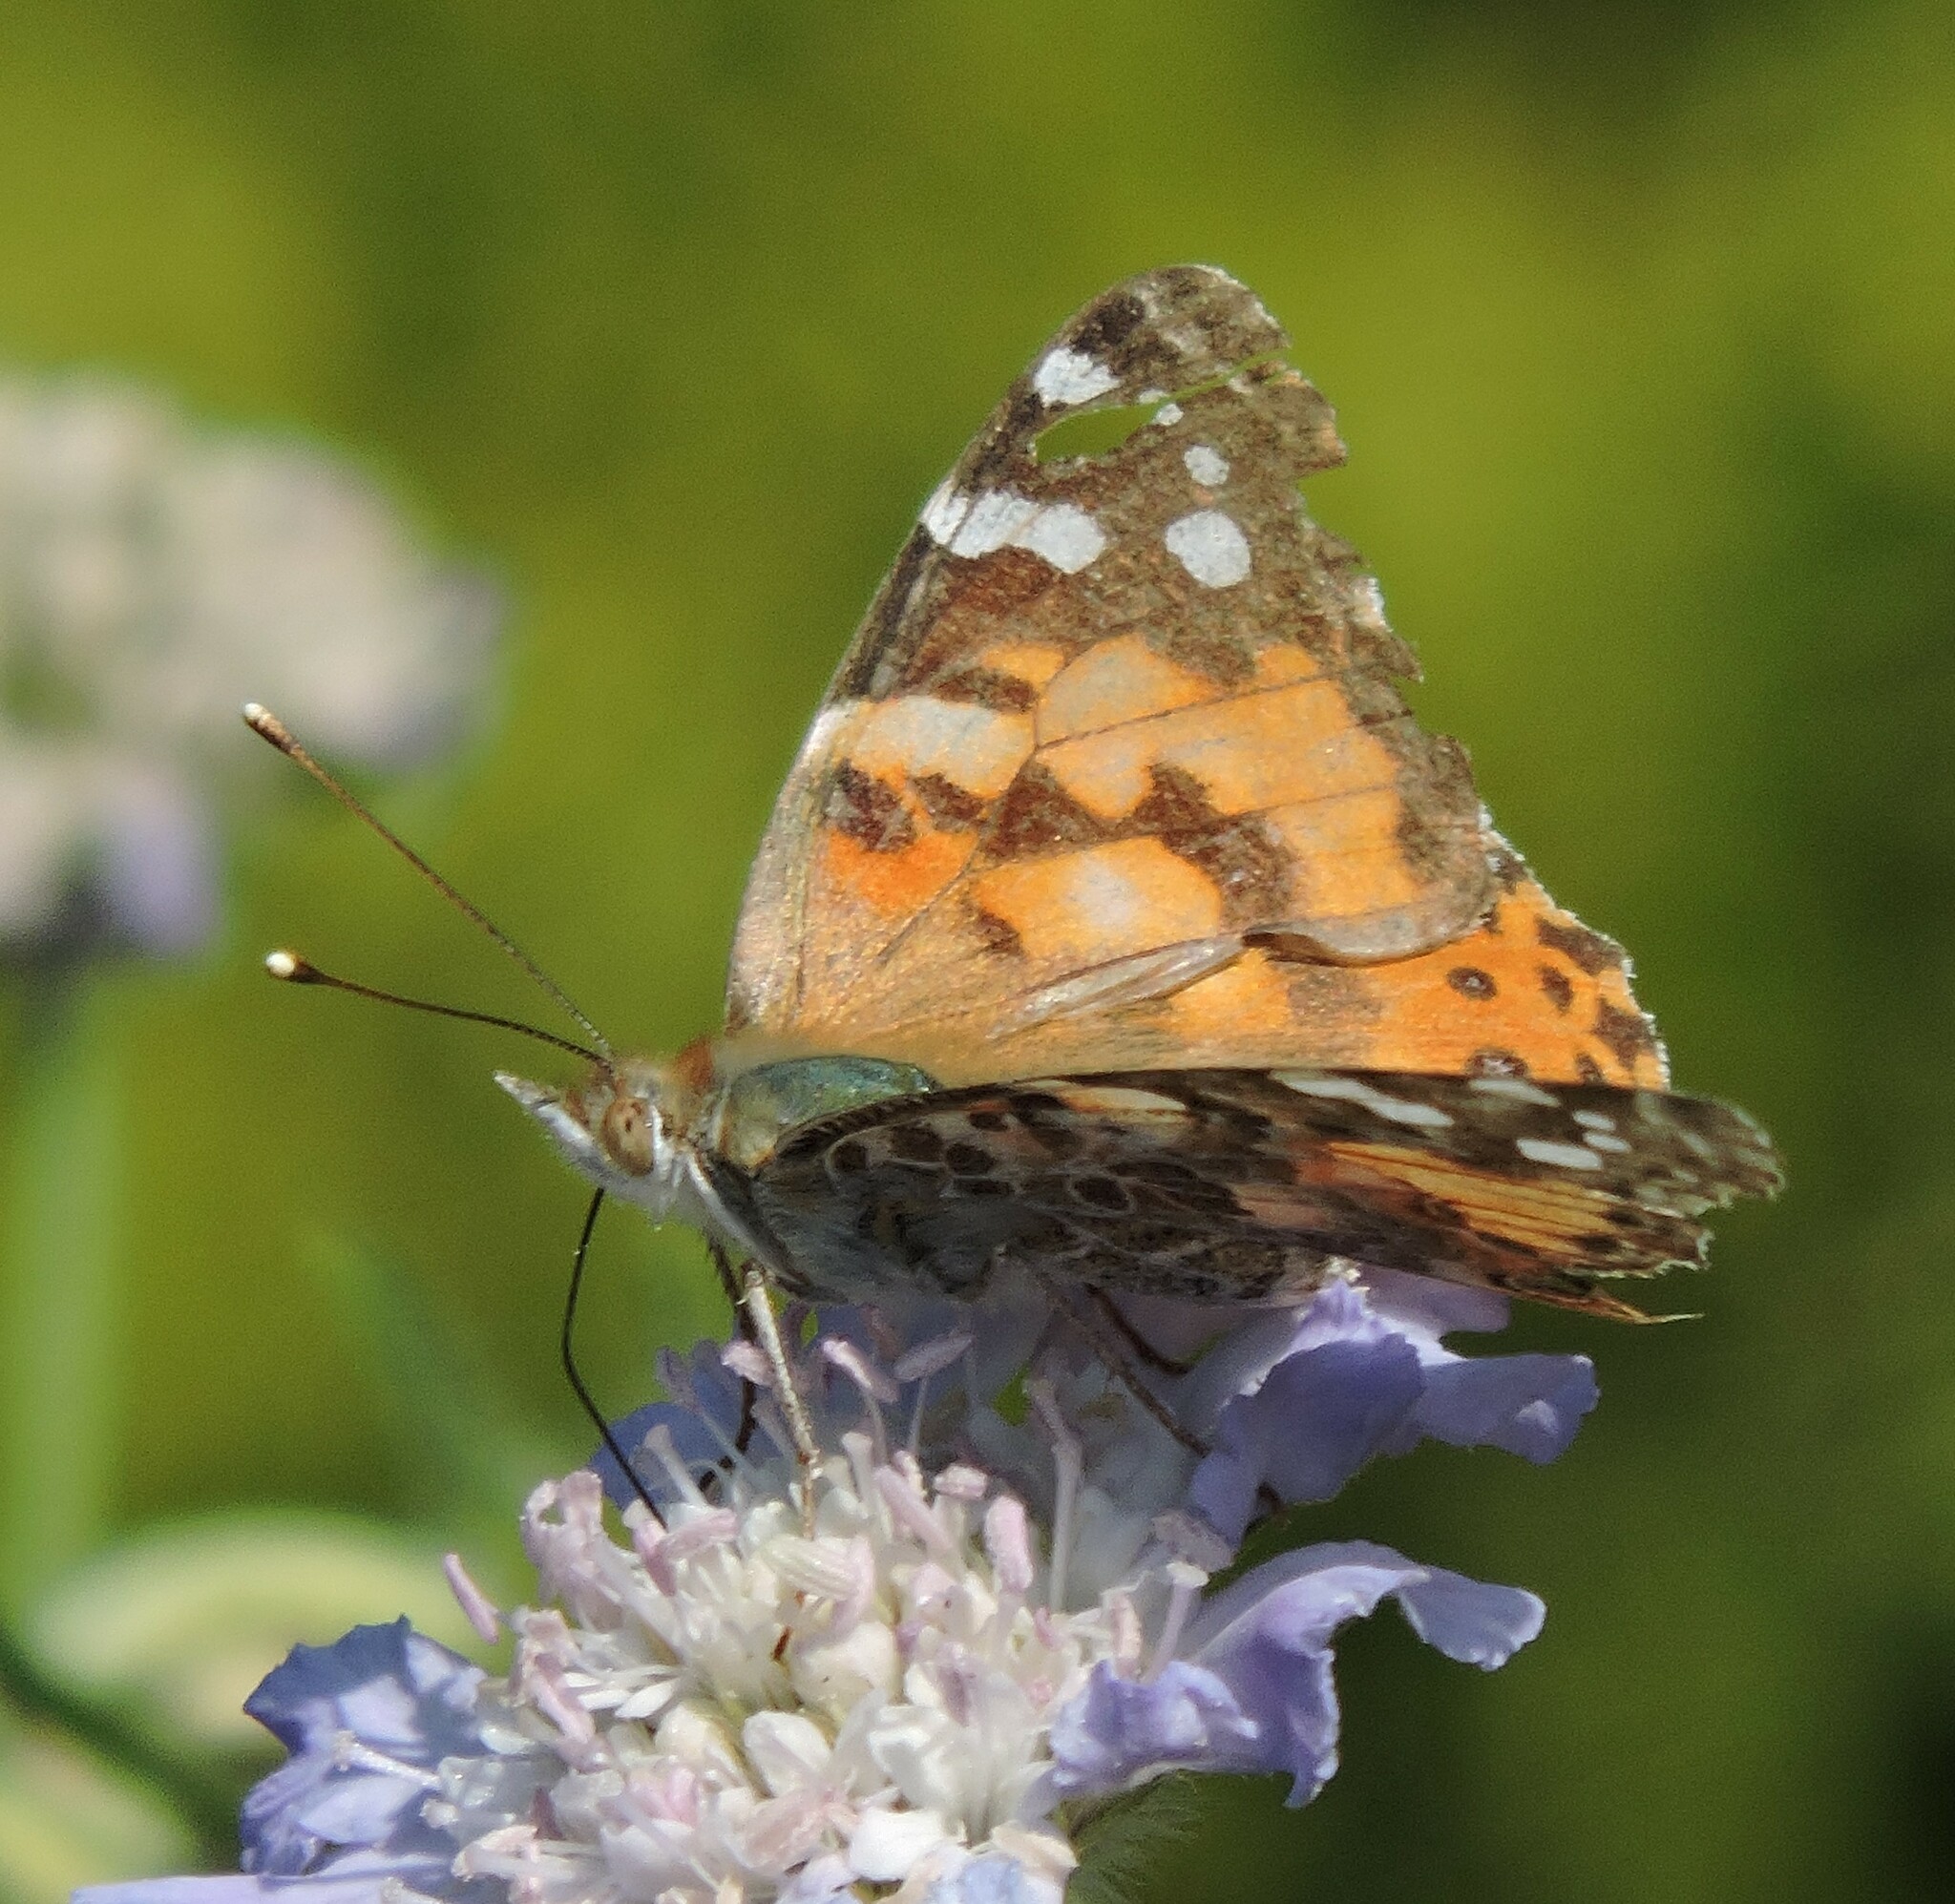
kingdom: Animalia
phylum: Arthropoda
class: Insecta
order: Lepidoptera
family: Nymphalidae
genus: Vanessa
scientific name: Vanessa cardui
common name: Painted lady
